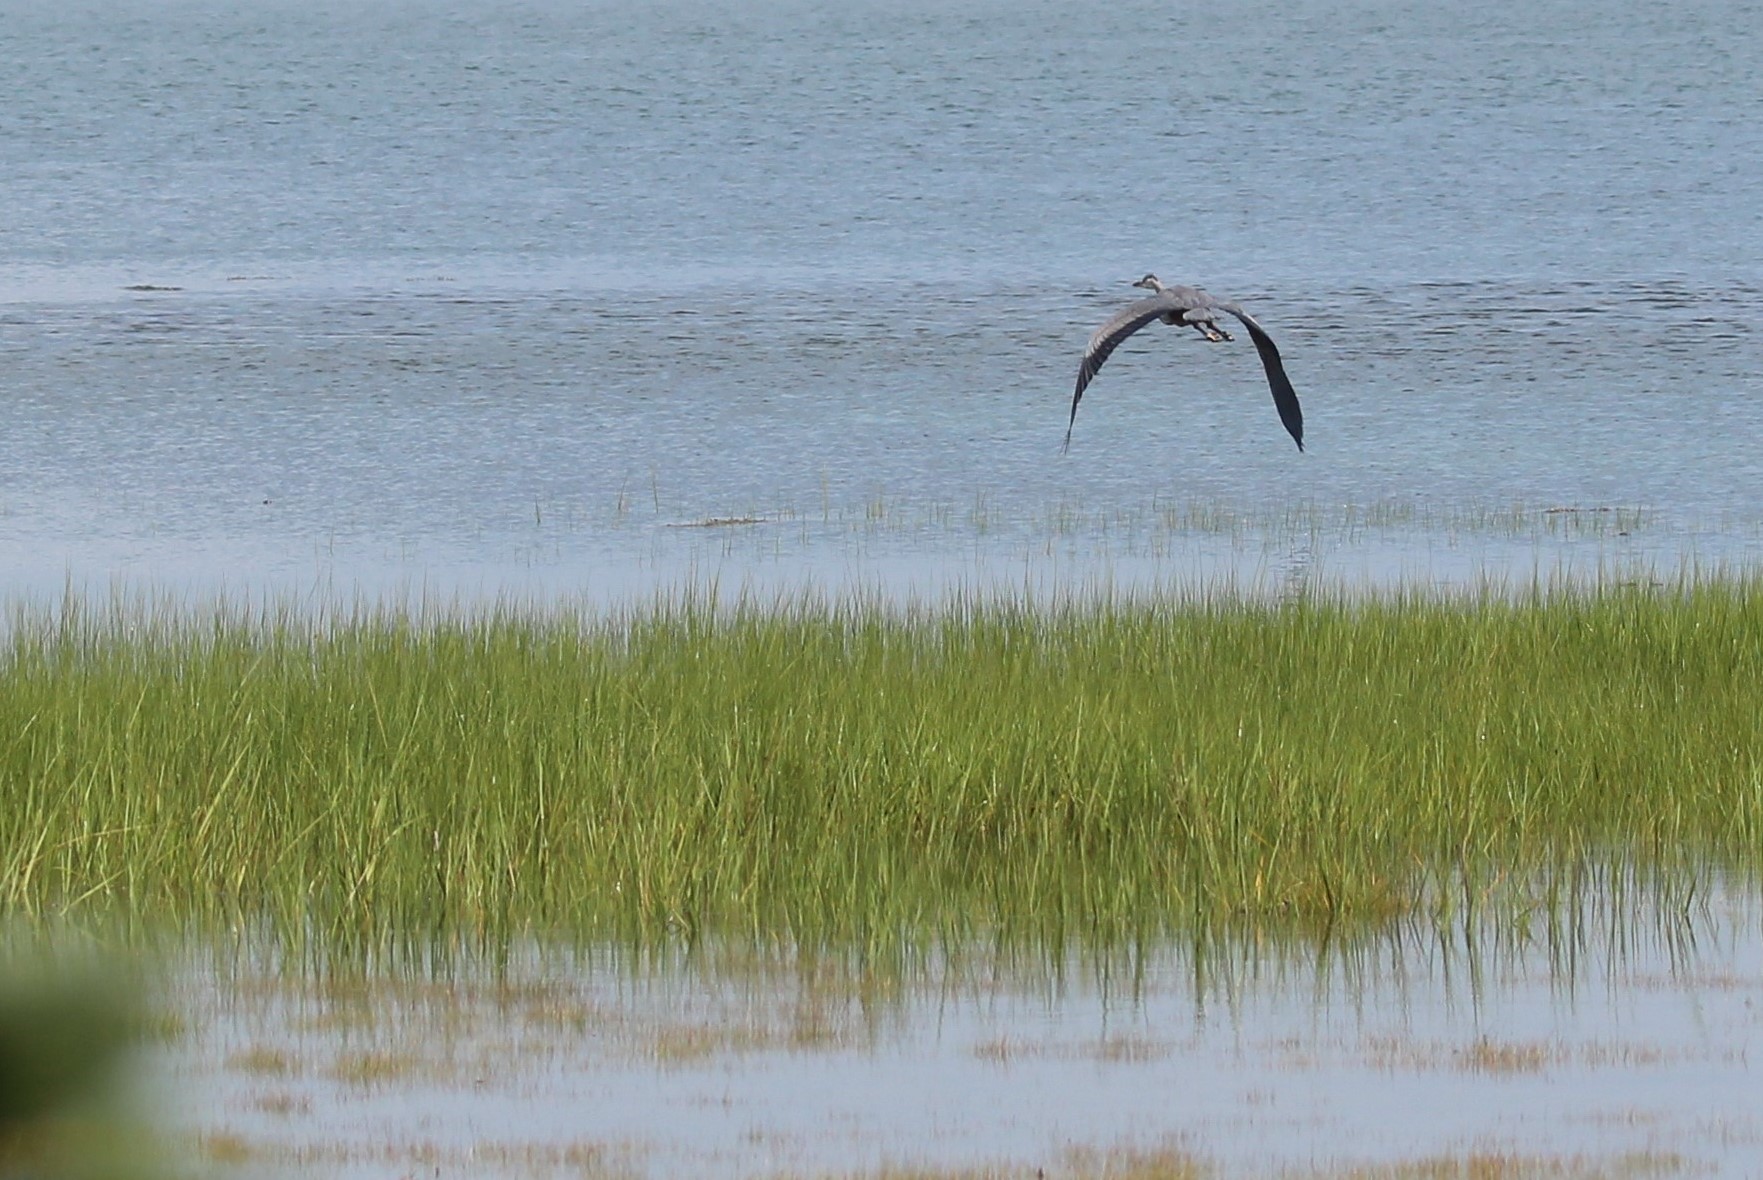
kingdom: Animalia
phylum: Chordata
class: Aves
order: Pelecaniformes
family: Ardeidae
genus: Ardea
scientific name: Ardea herodias
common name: Great blue heron
